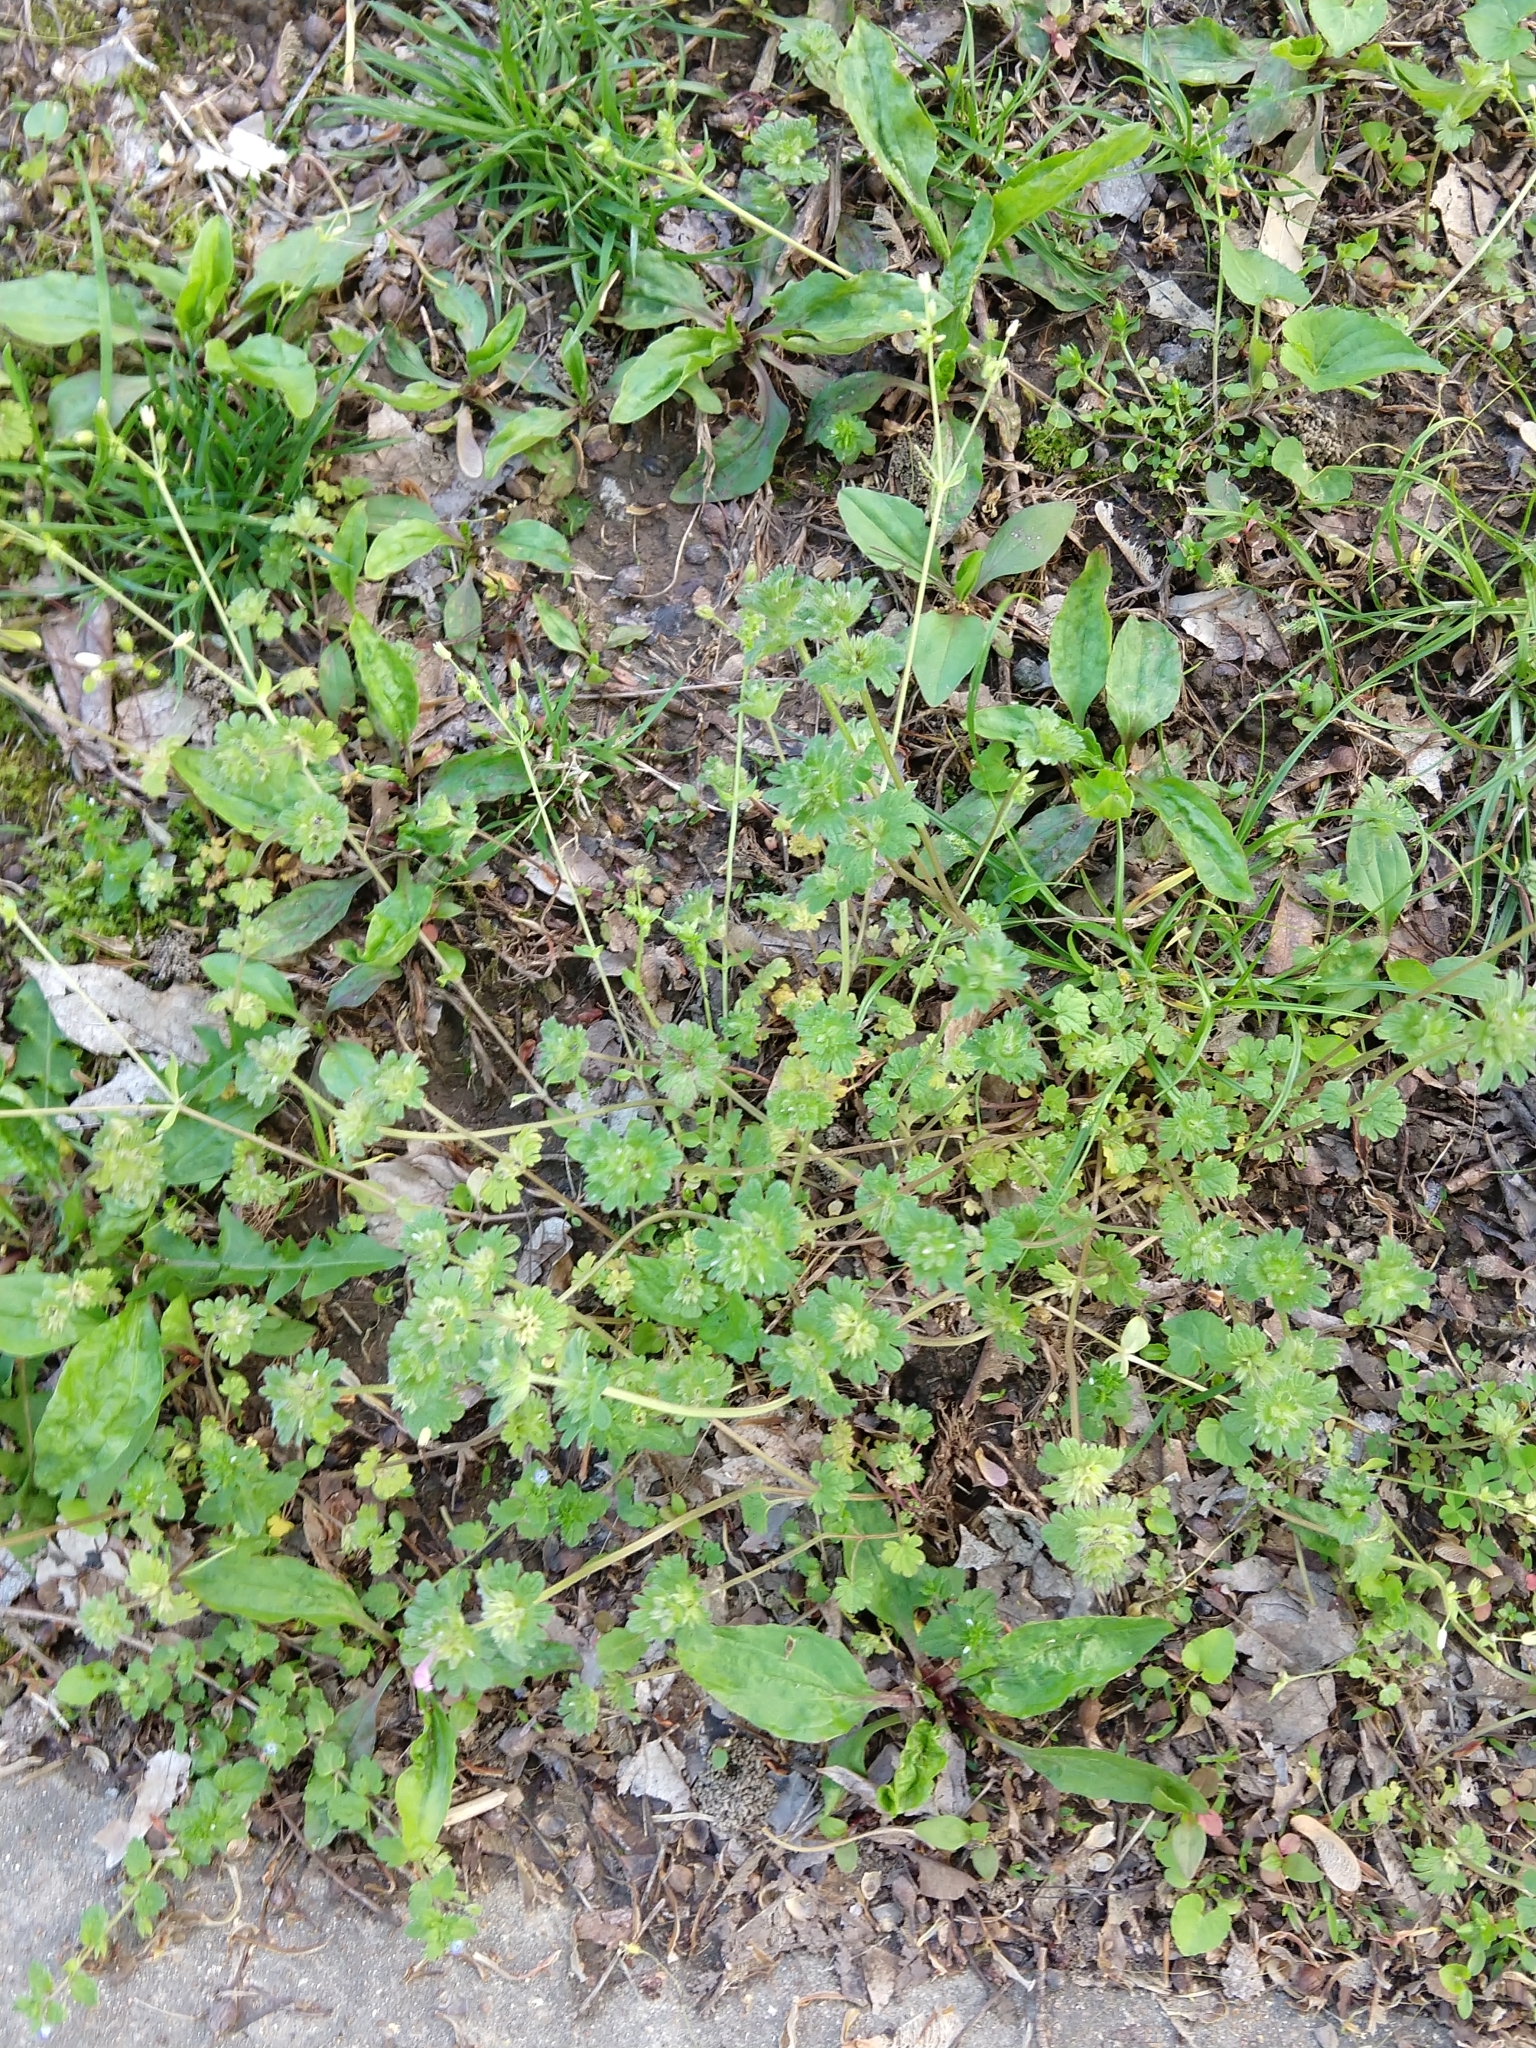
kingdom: Plantae
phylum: Tracheophyta
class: Magnoliopsida
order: Lamiales
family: Lamiaceae
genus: Lamium
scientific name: Lamium amplexicaule
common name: Henbit dead-nettle
